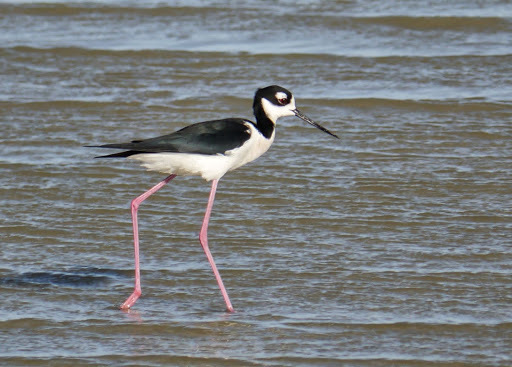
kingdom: Animalia
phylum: Chordata
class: Aves
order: Charadriiformes
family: Recurvirostridae
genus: Himantopus
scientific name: Himantopus mexicanus
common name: Black-necked stilt
